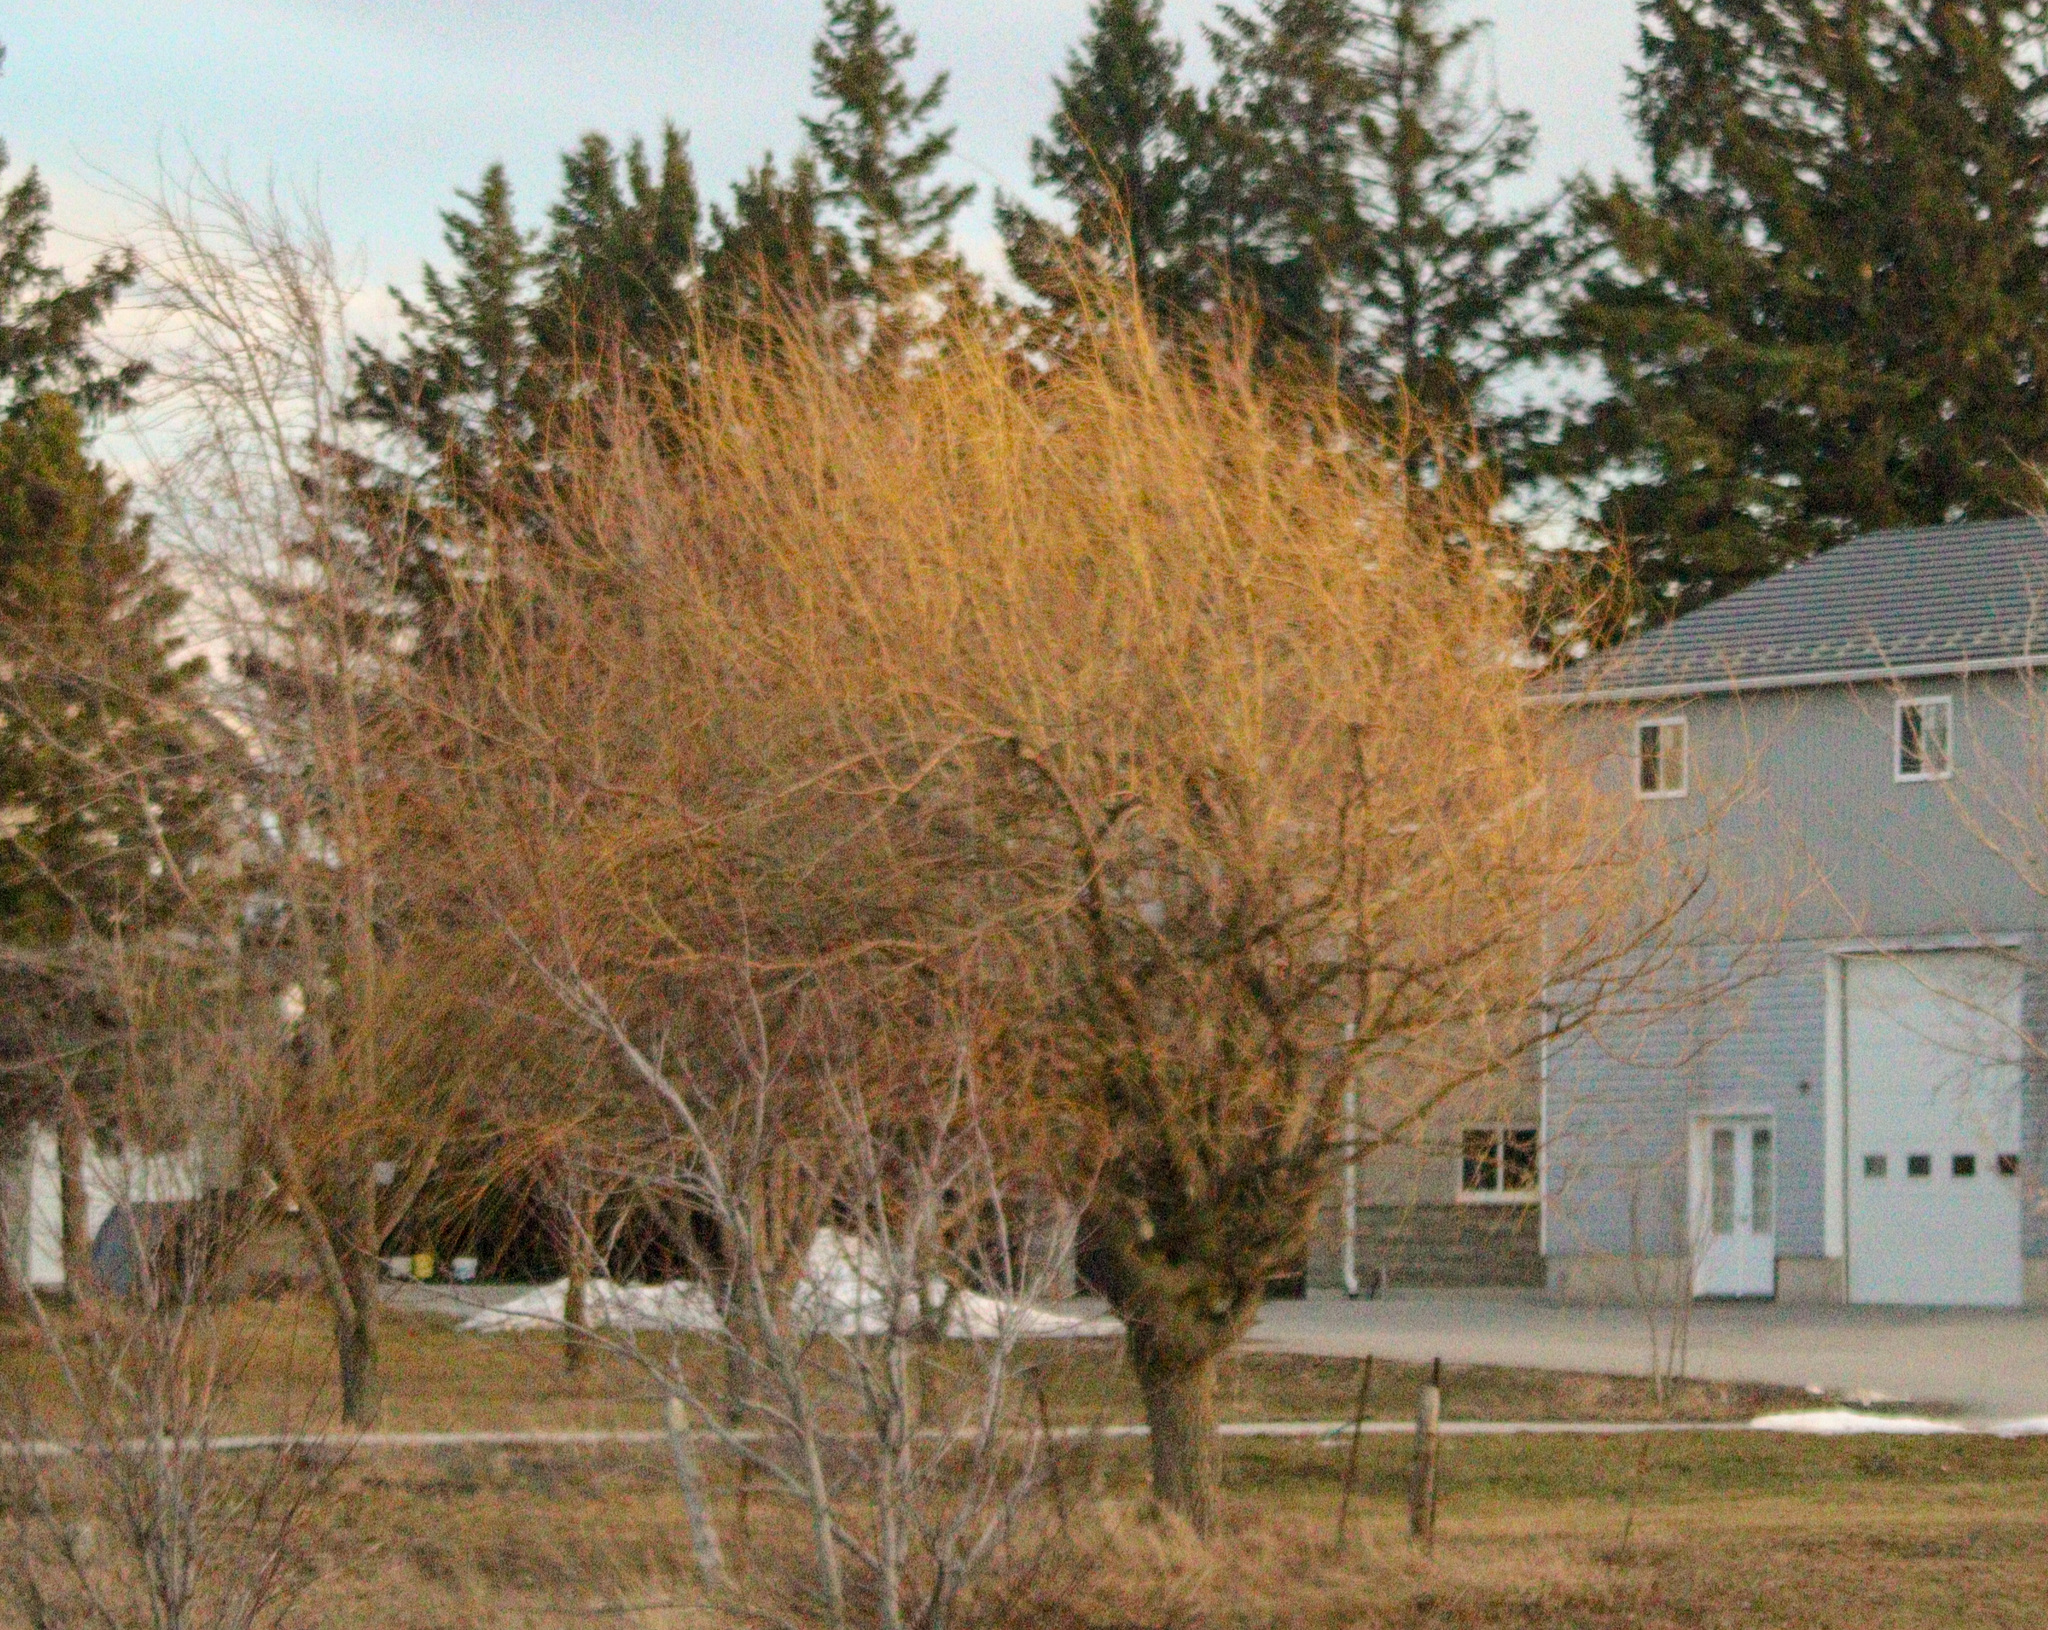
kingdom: Plantae
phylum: Tracheophyta
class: Magnoliopsida
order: Malpighiales
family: Salicaceae
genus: Salix
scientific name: Salix pendulina
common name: Wisconsin weeping willow
